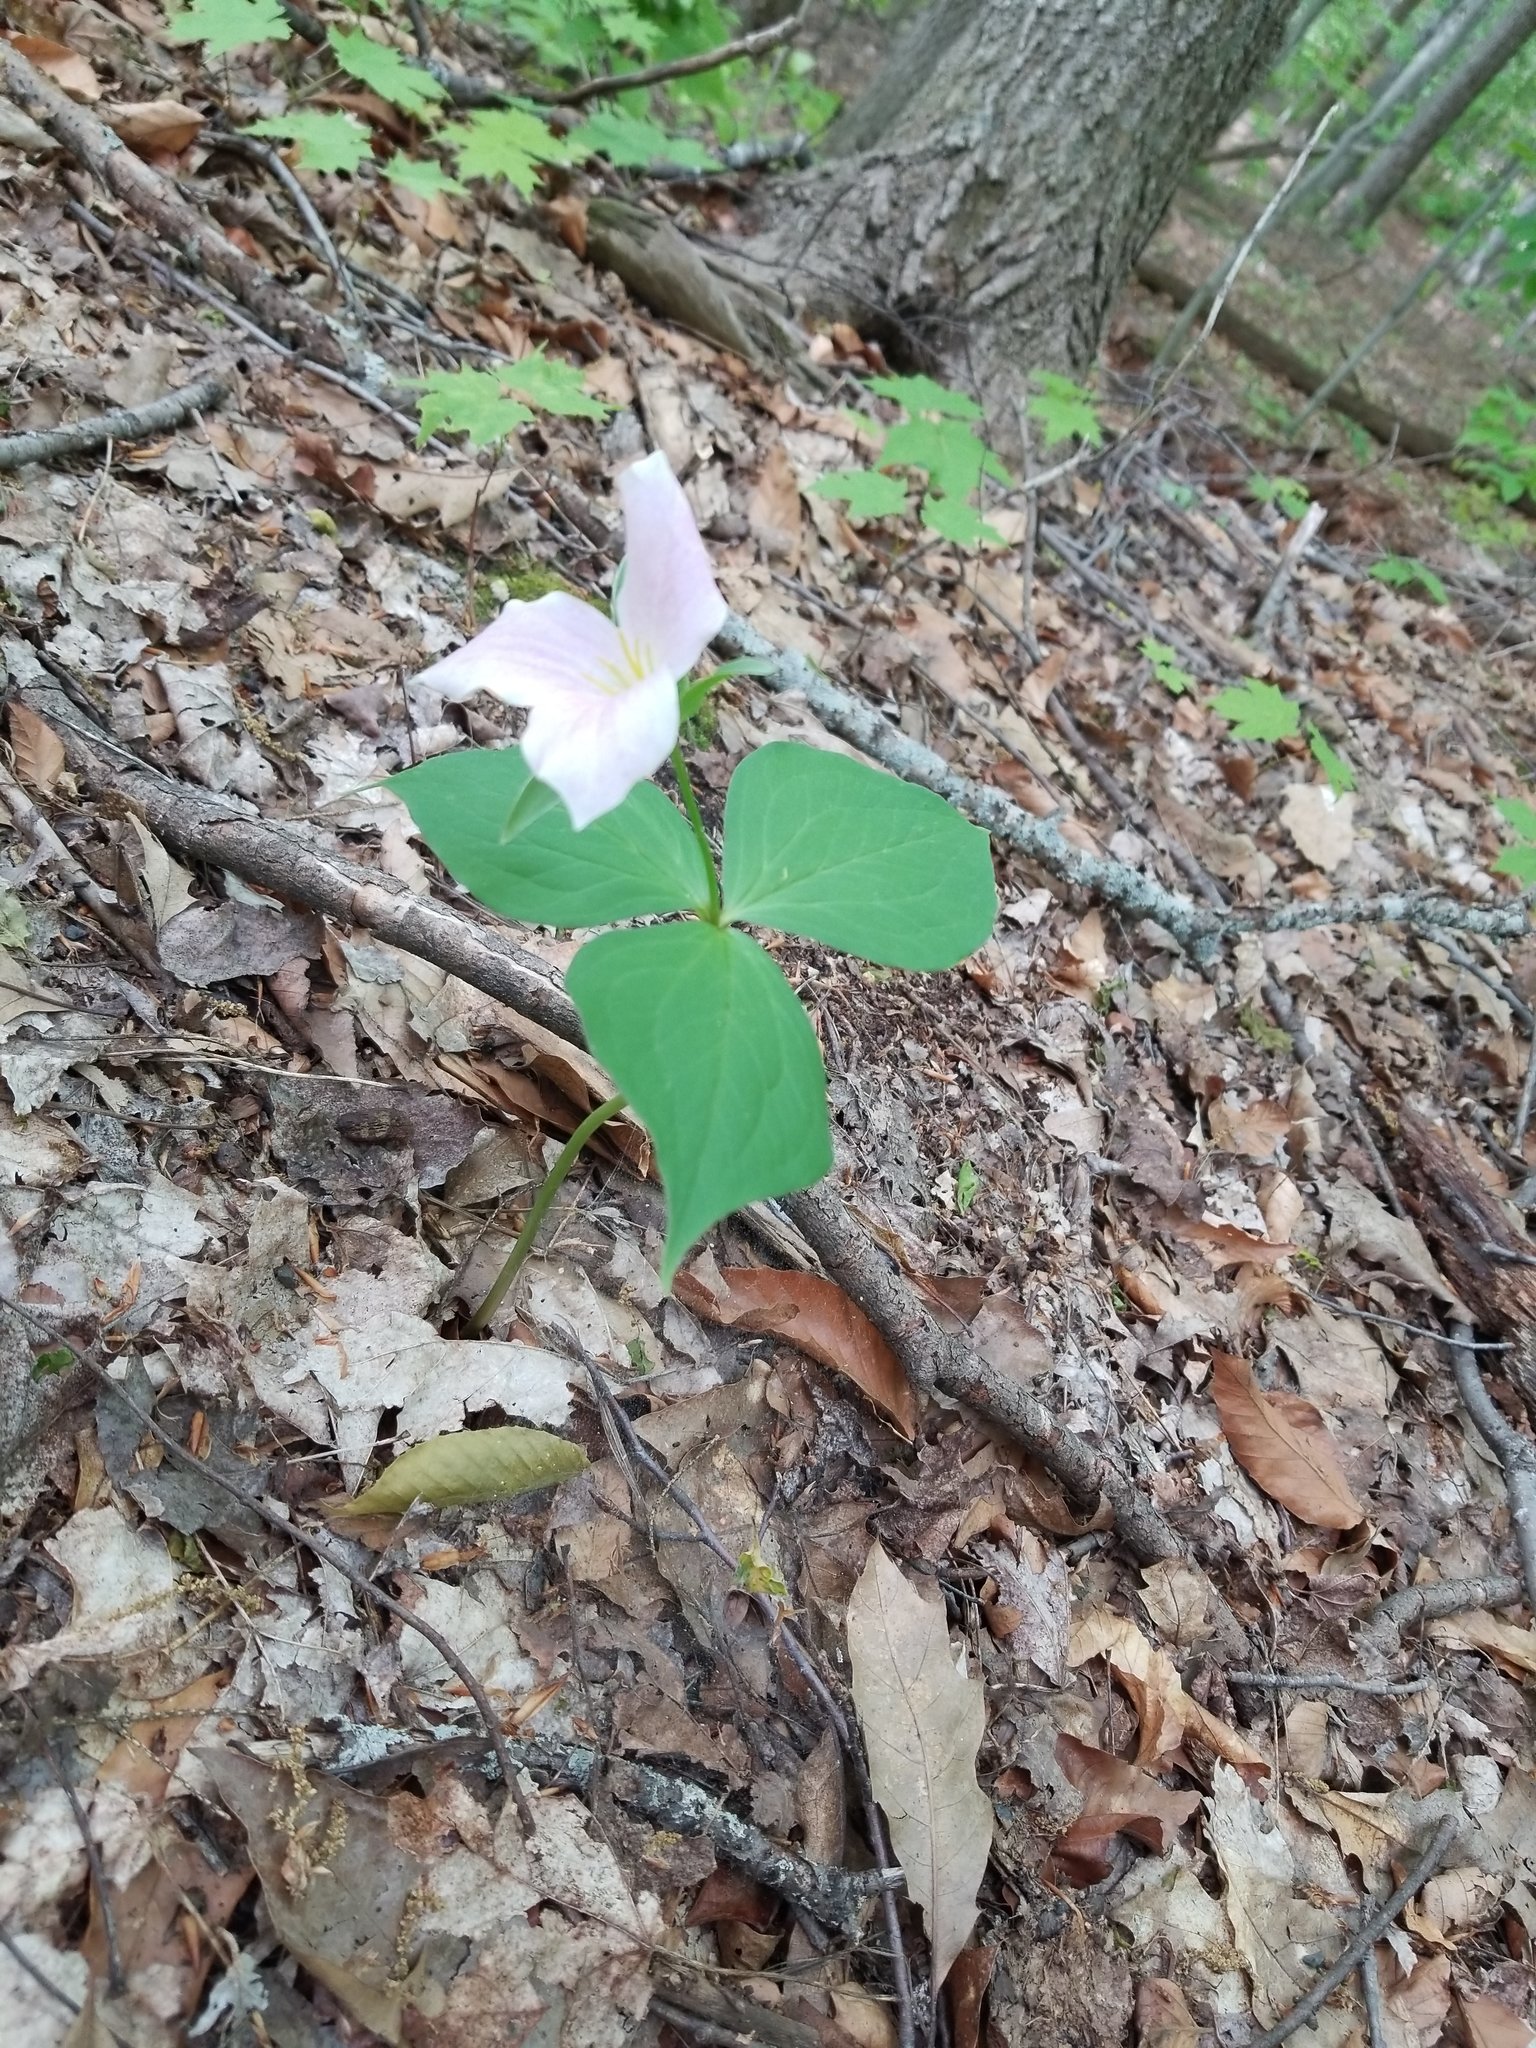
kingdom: Plantae
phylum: Tracheophyta
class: Liliopsida
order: Liliales
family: Melanthiaceae
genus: Trillium
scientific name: Trillium grandiflorum
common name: Great white trillium
